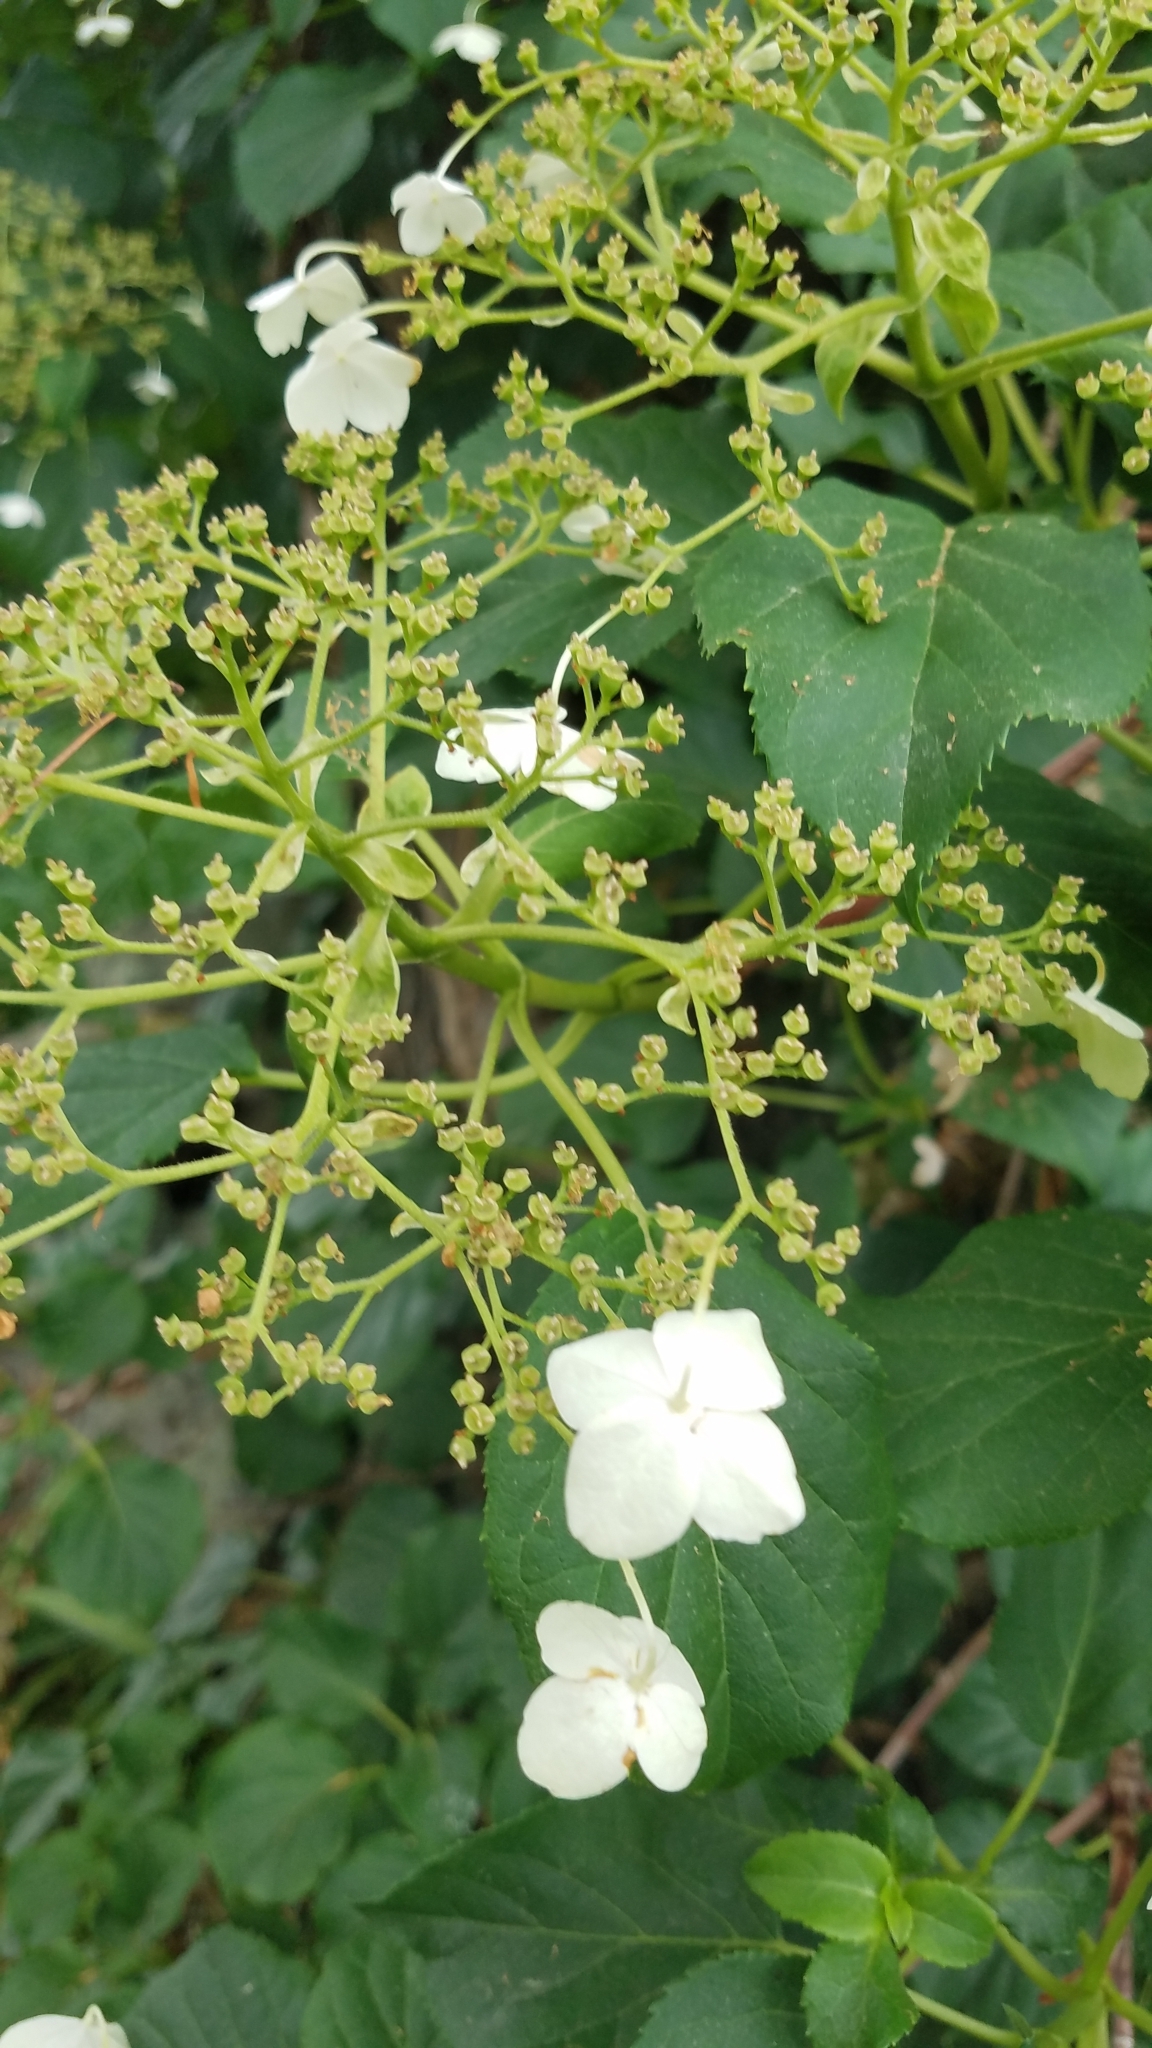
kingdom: Plantae
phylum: Tracheophyta
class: Magnoliopsida
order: Cornales
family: Hydrangeaceae
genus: Hydrangea
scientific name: Hydrangea arborescens
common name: Sevenbark
